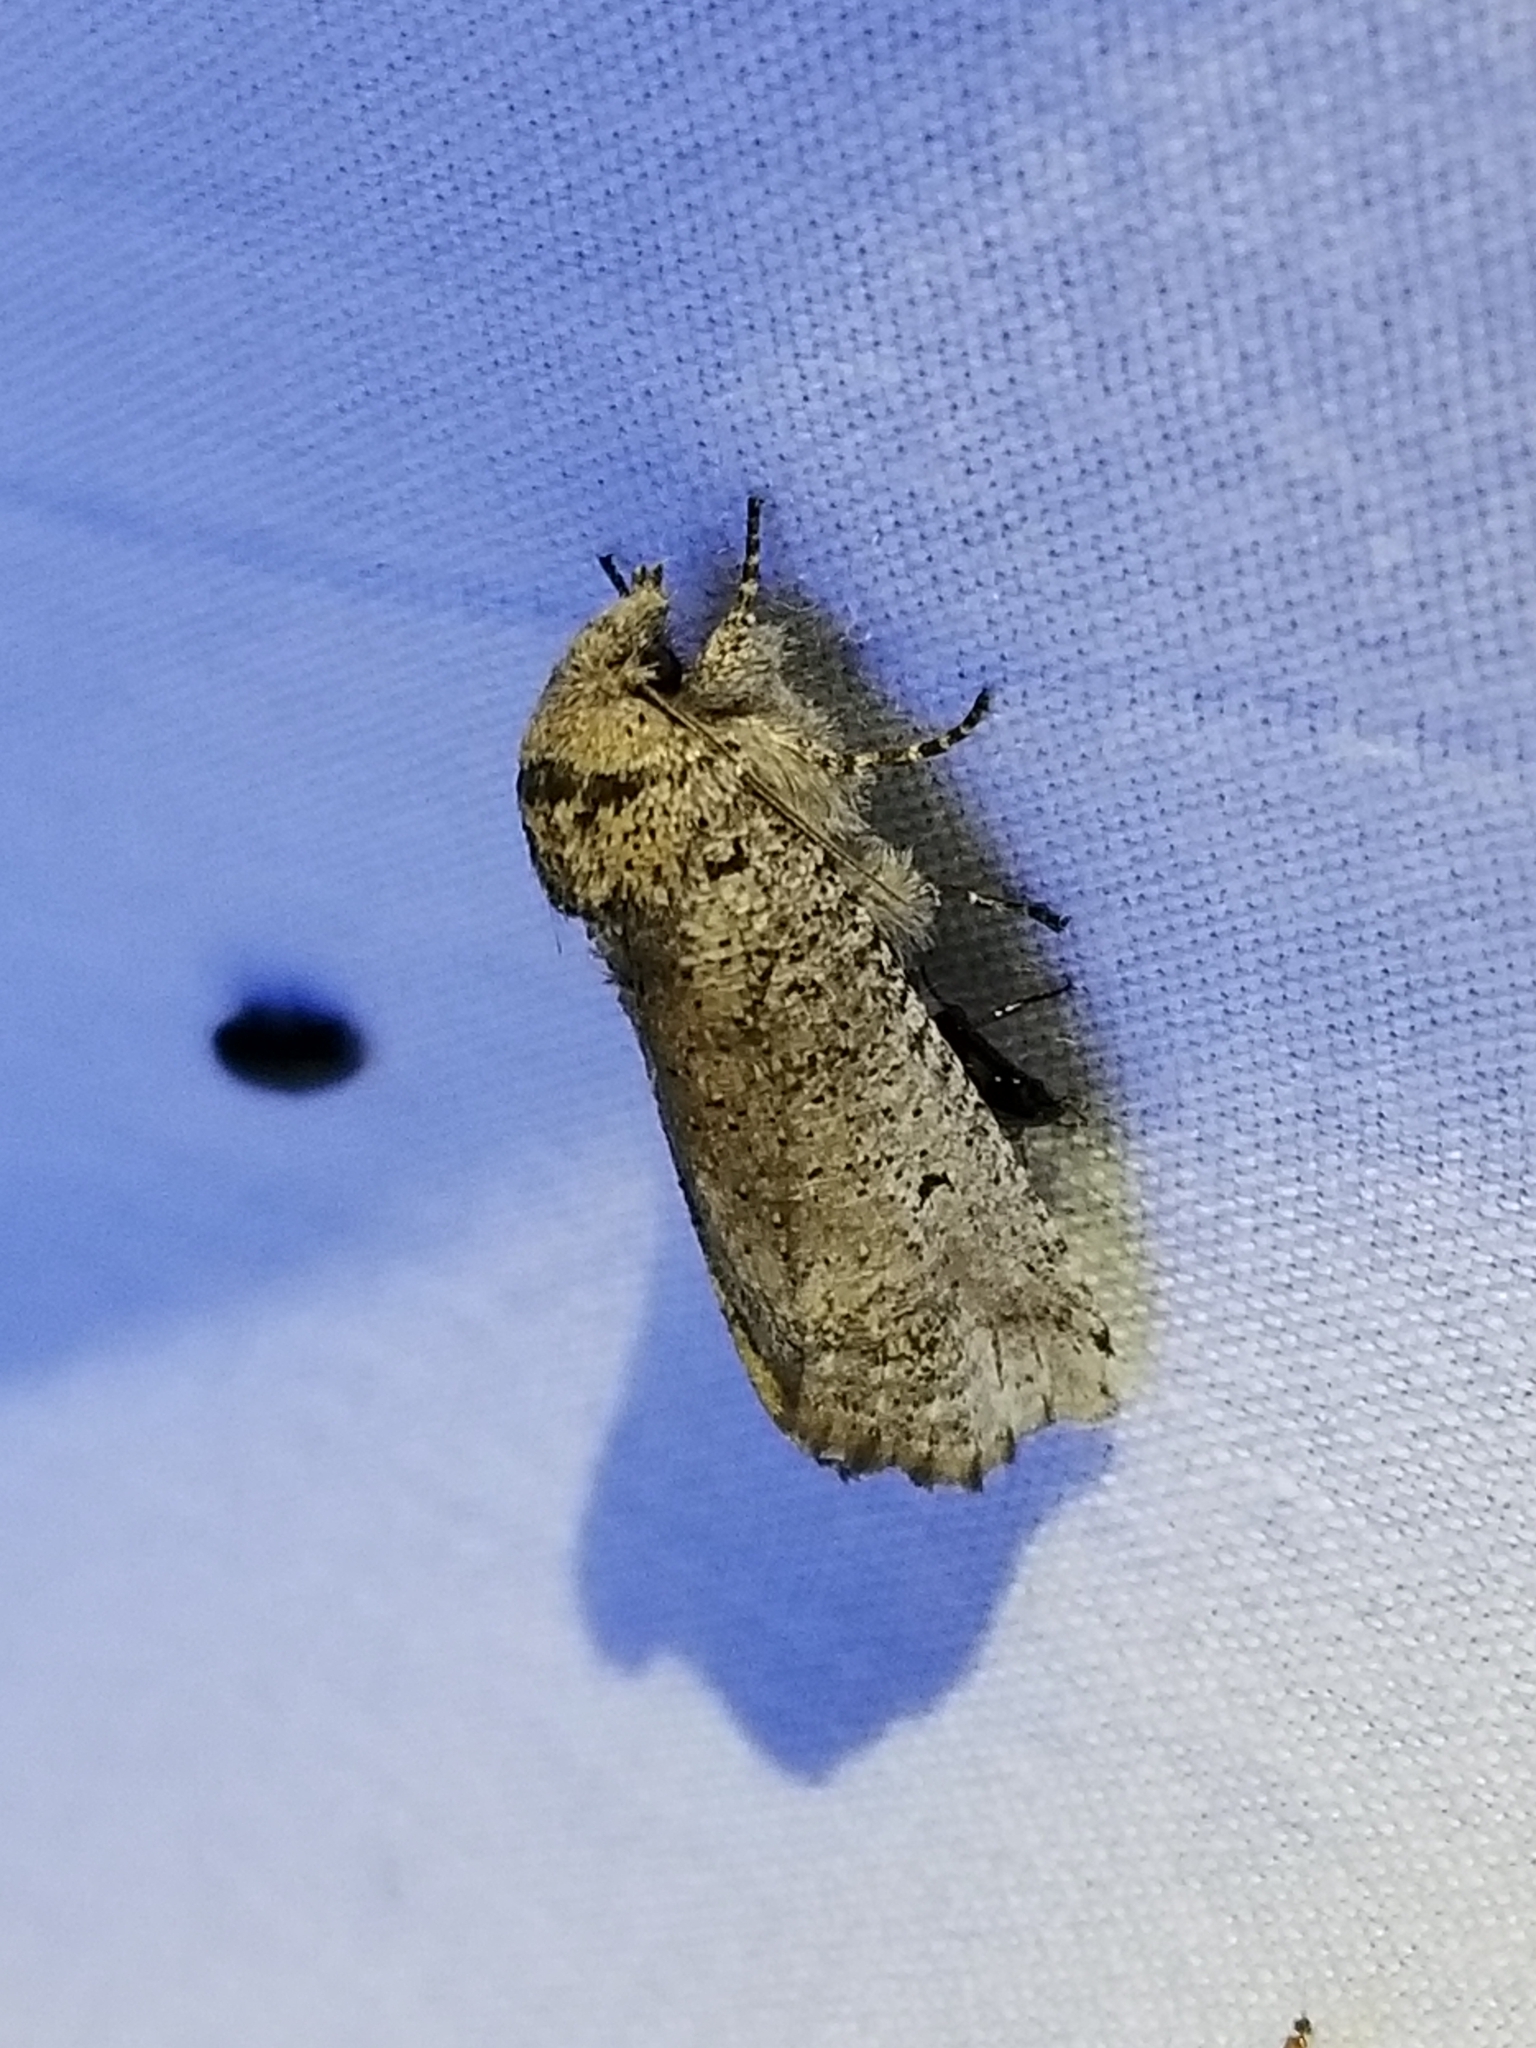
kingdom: Animalia
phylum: Arthropoda
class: Insecta
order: Lepidoptera
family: Erebidae
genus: Aon
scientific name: Aon noctuiformis
